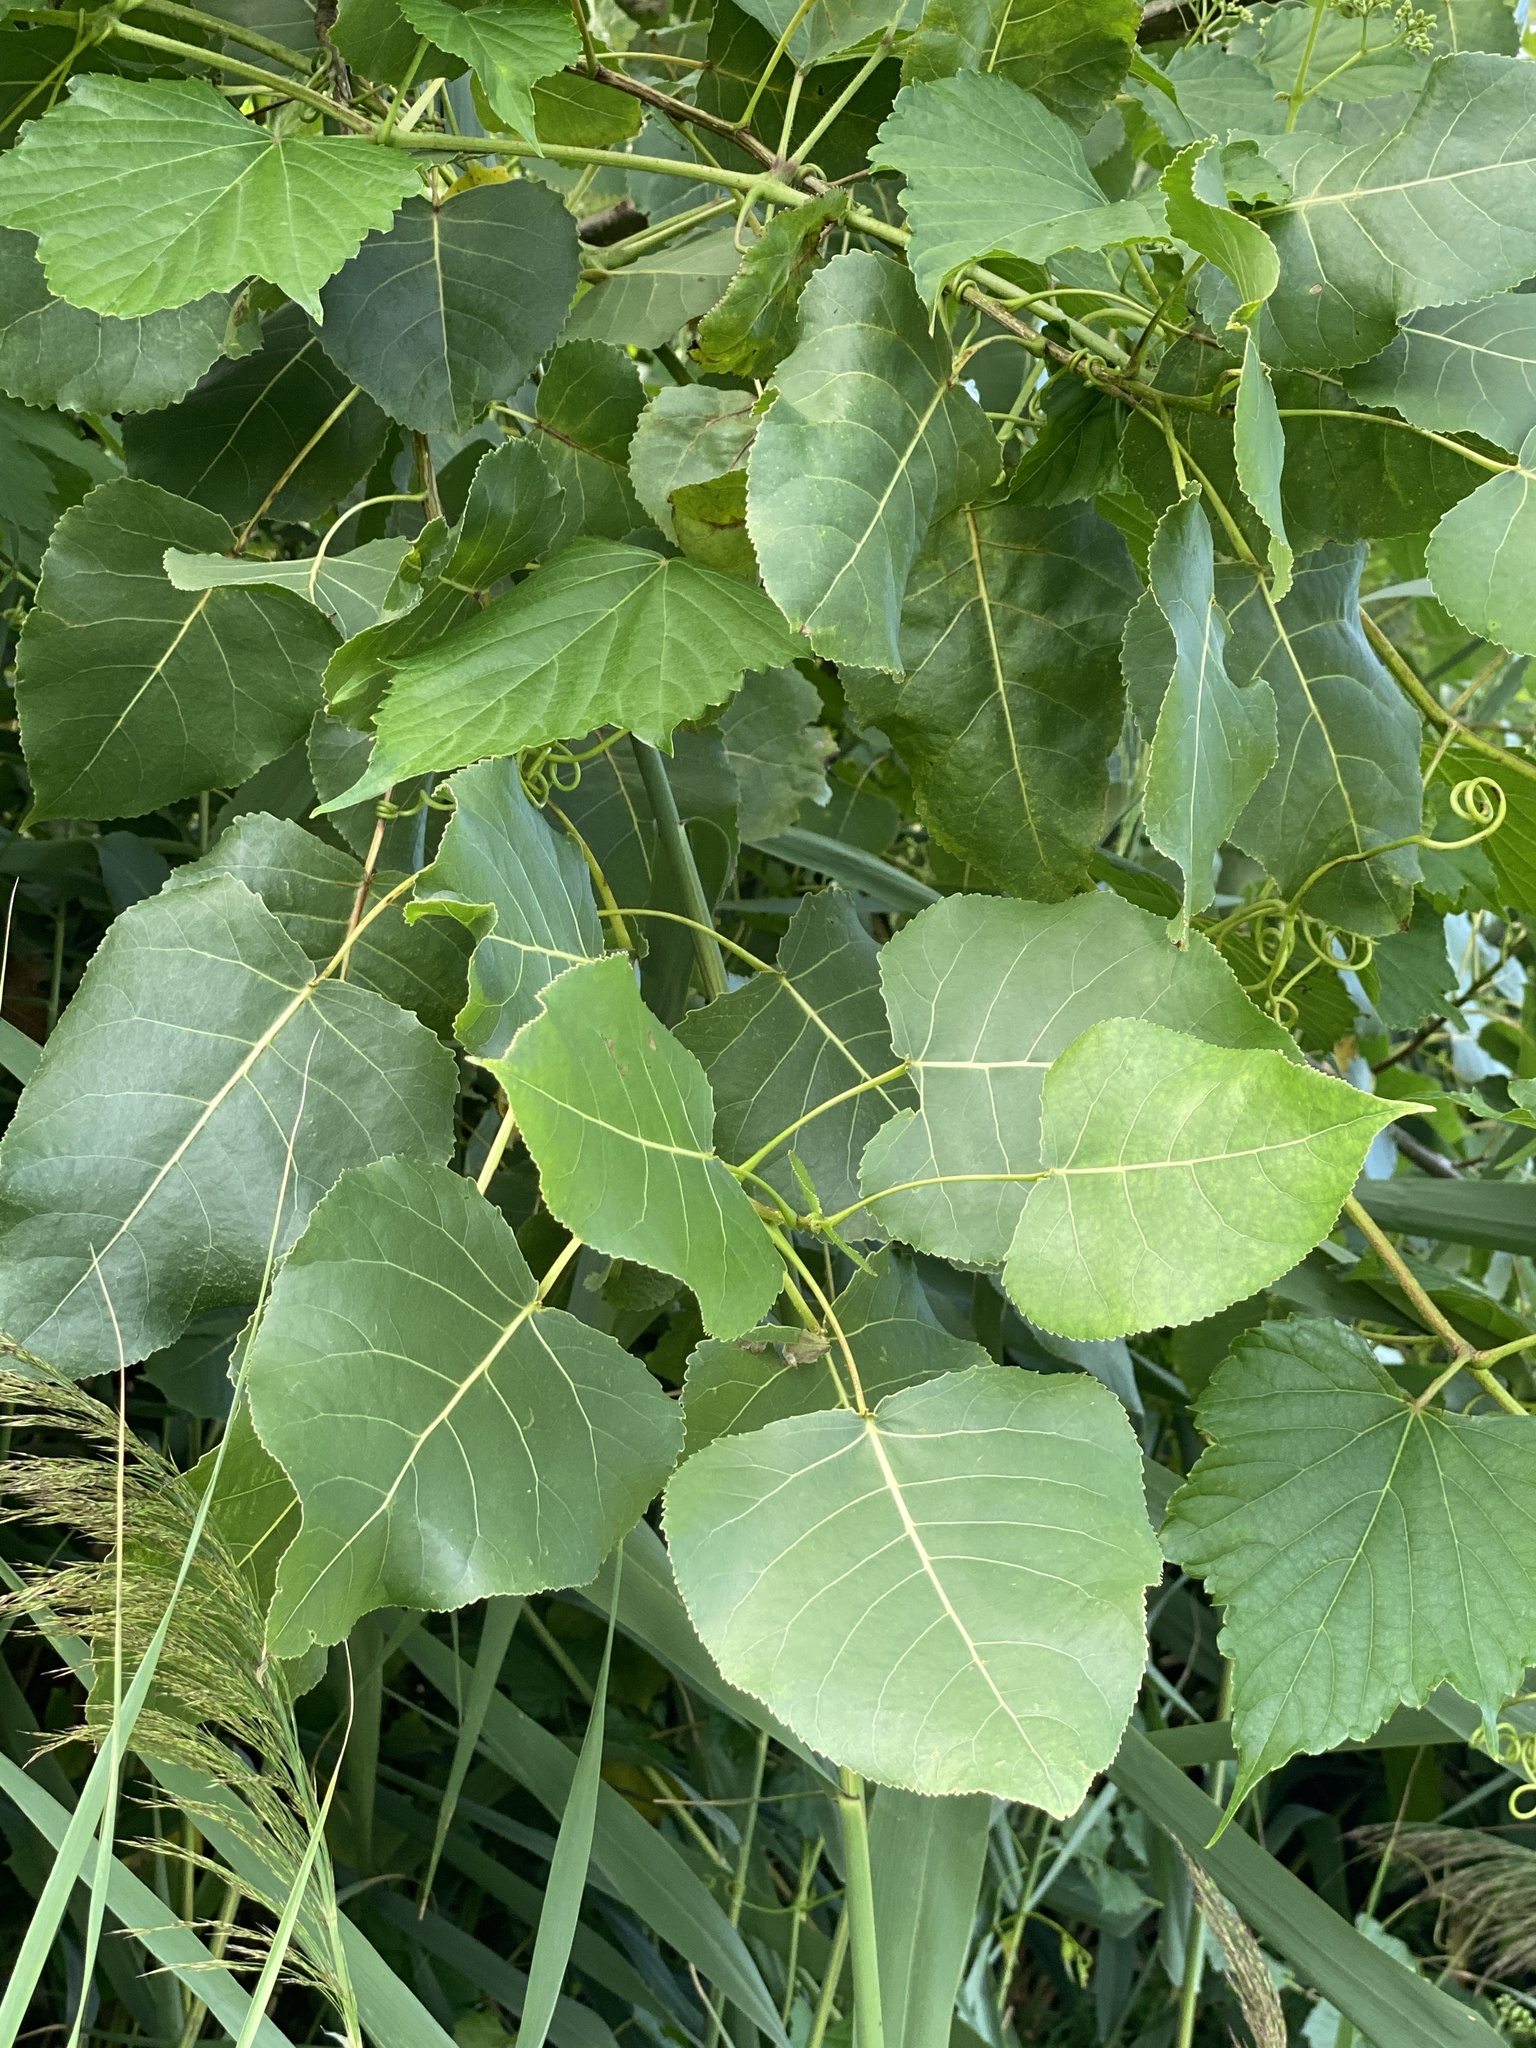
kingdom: Plantae
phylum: Tracheophyta
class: Magnoliopsida
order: Malpighiales
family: Salicaceae
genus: Populus
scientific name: Populus deltoides
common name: Eastern cottonwood
